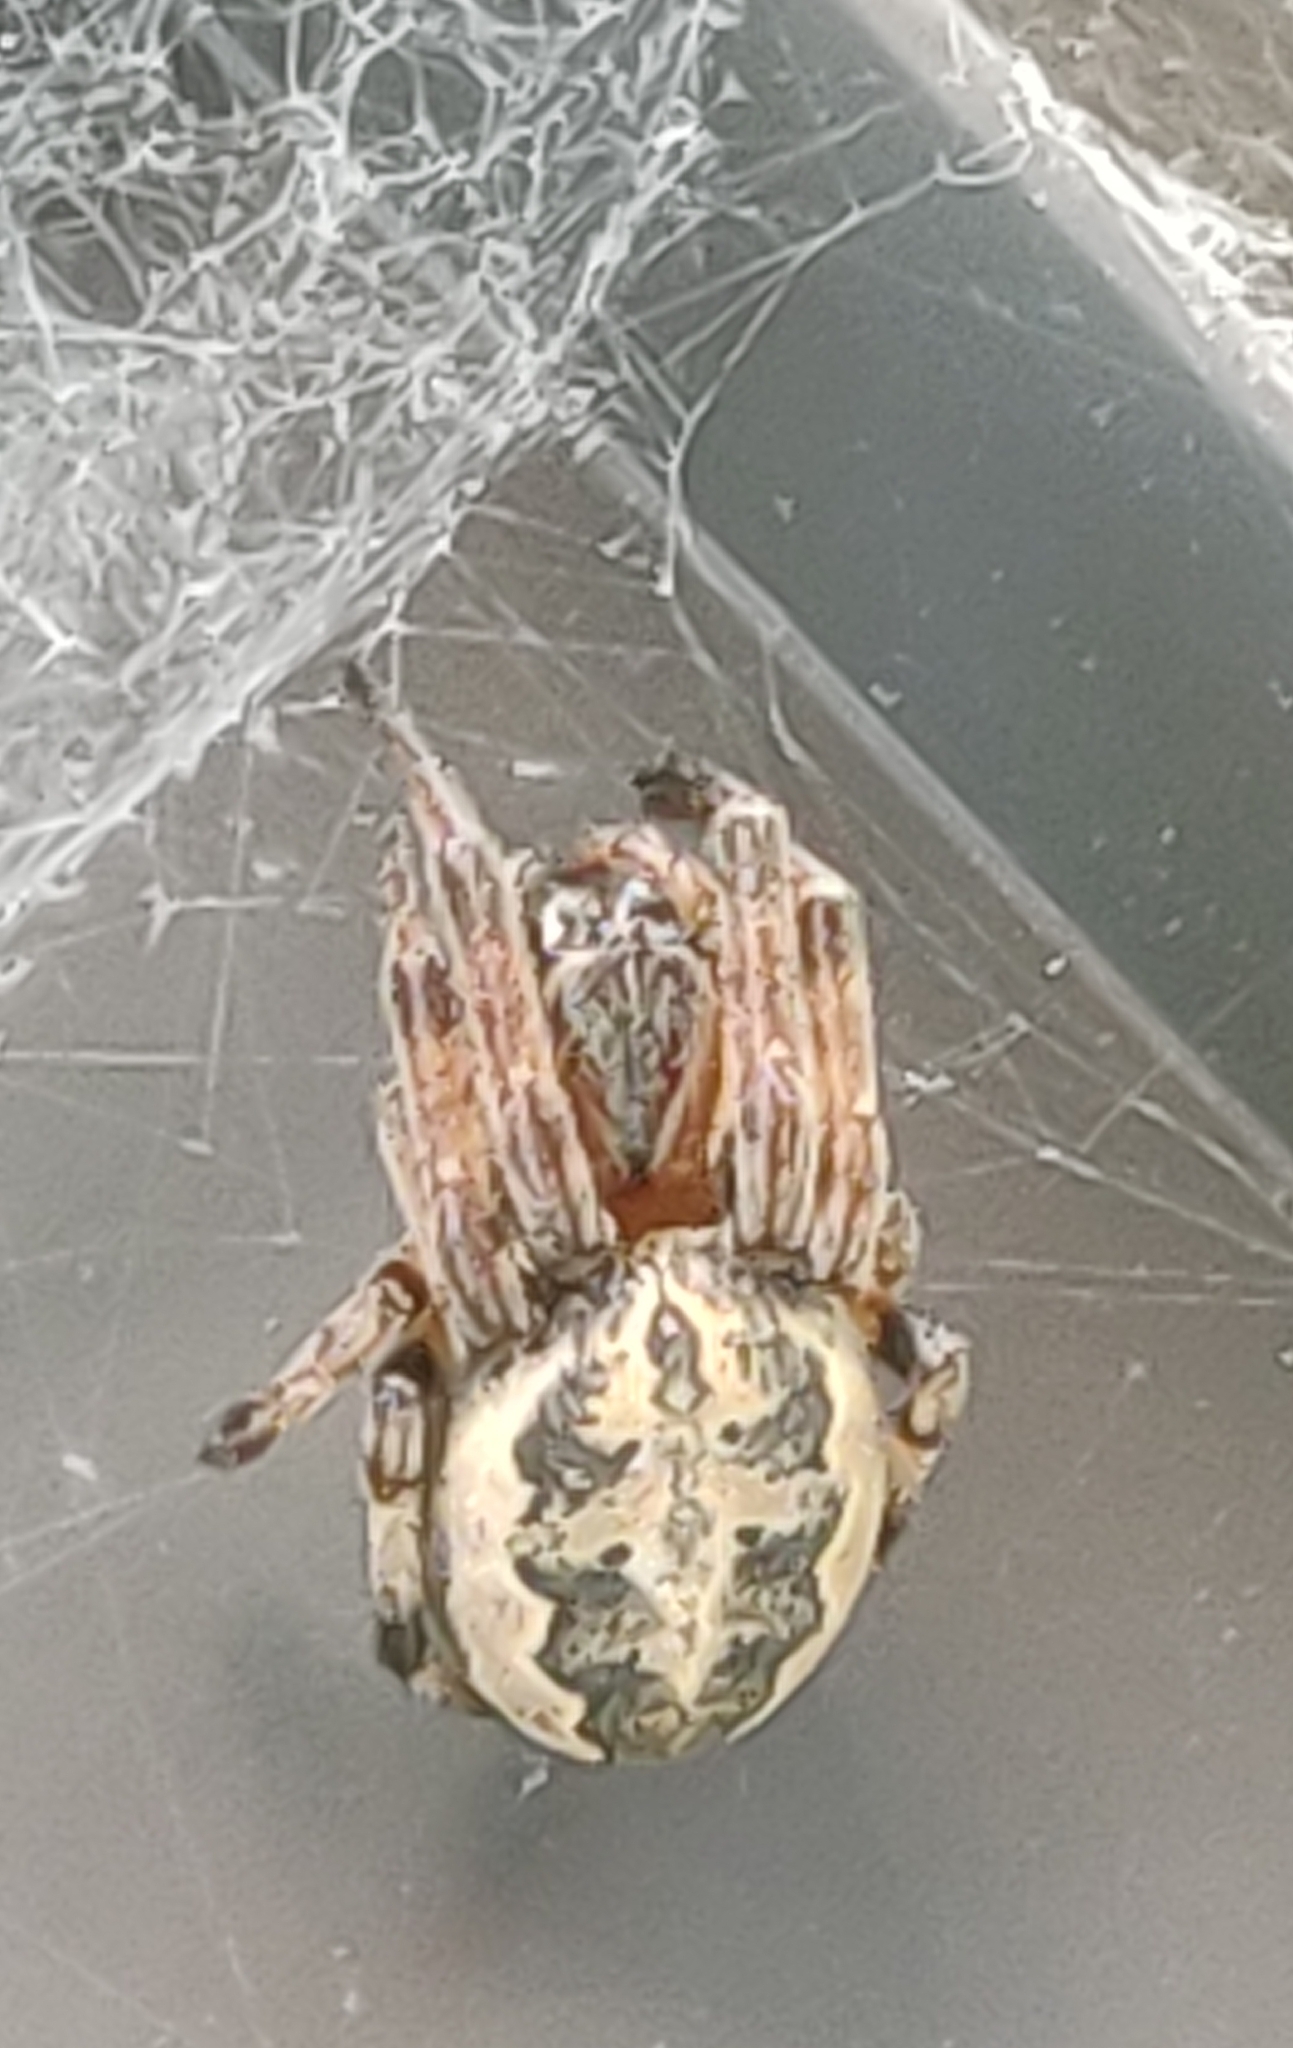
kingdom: Animalia
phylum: Arthropoda
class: Arachnida
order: Araneae
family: Araneidae
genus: Larinioides
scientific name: Larinioides cornutus
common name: Furrow orbweaver
